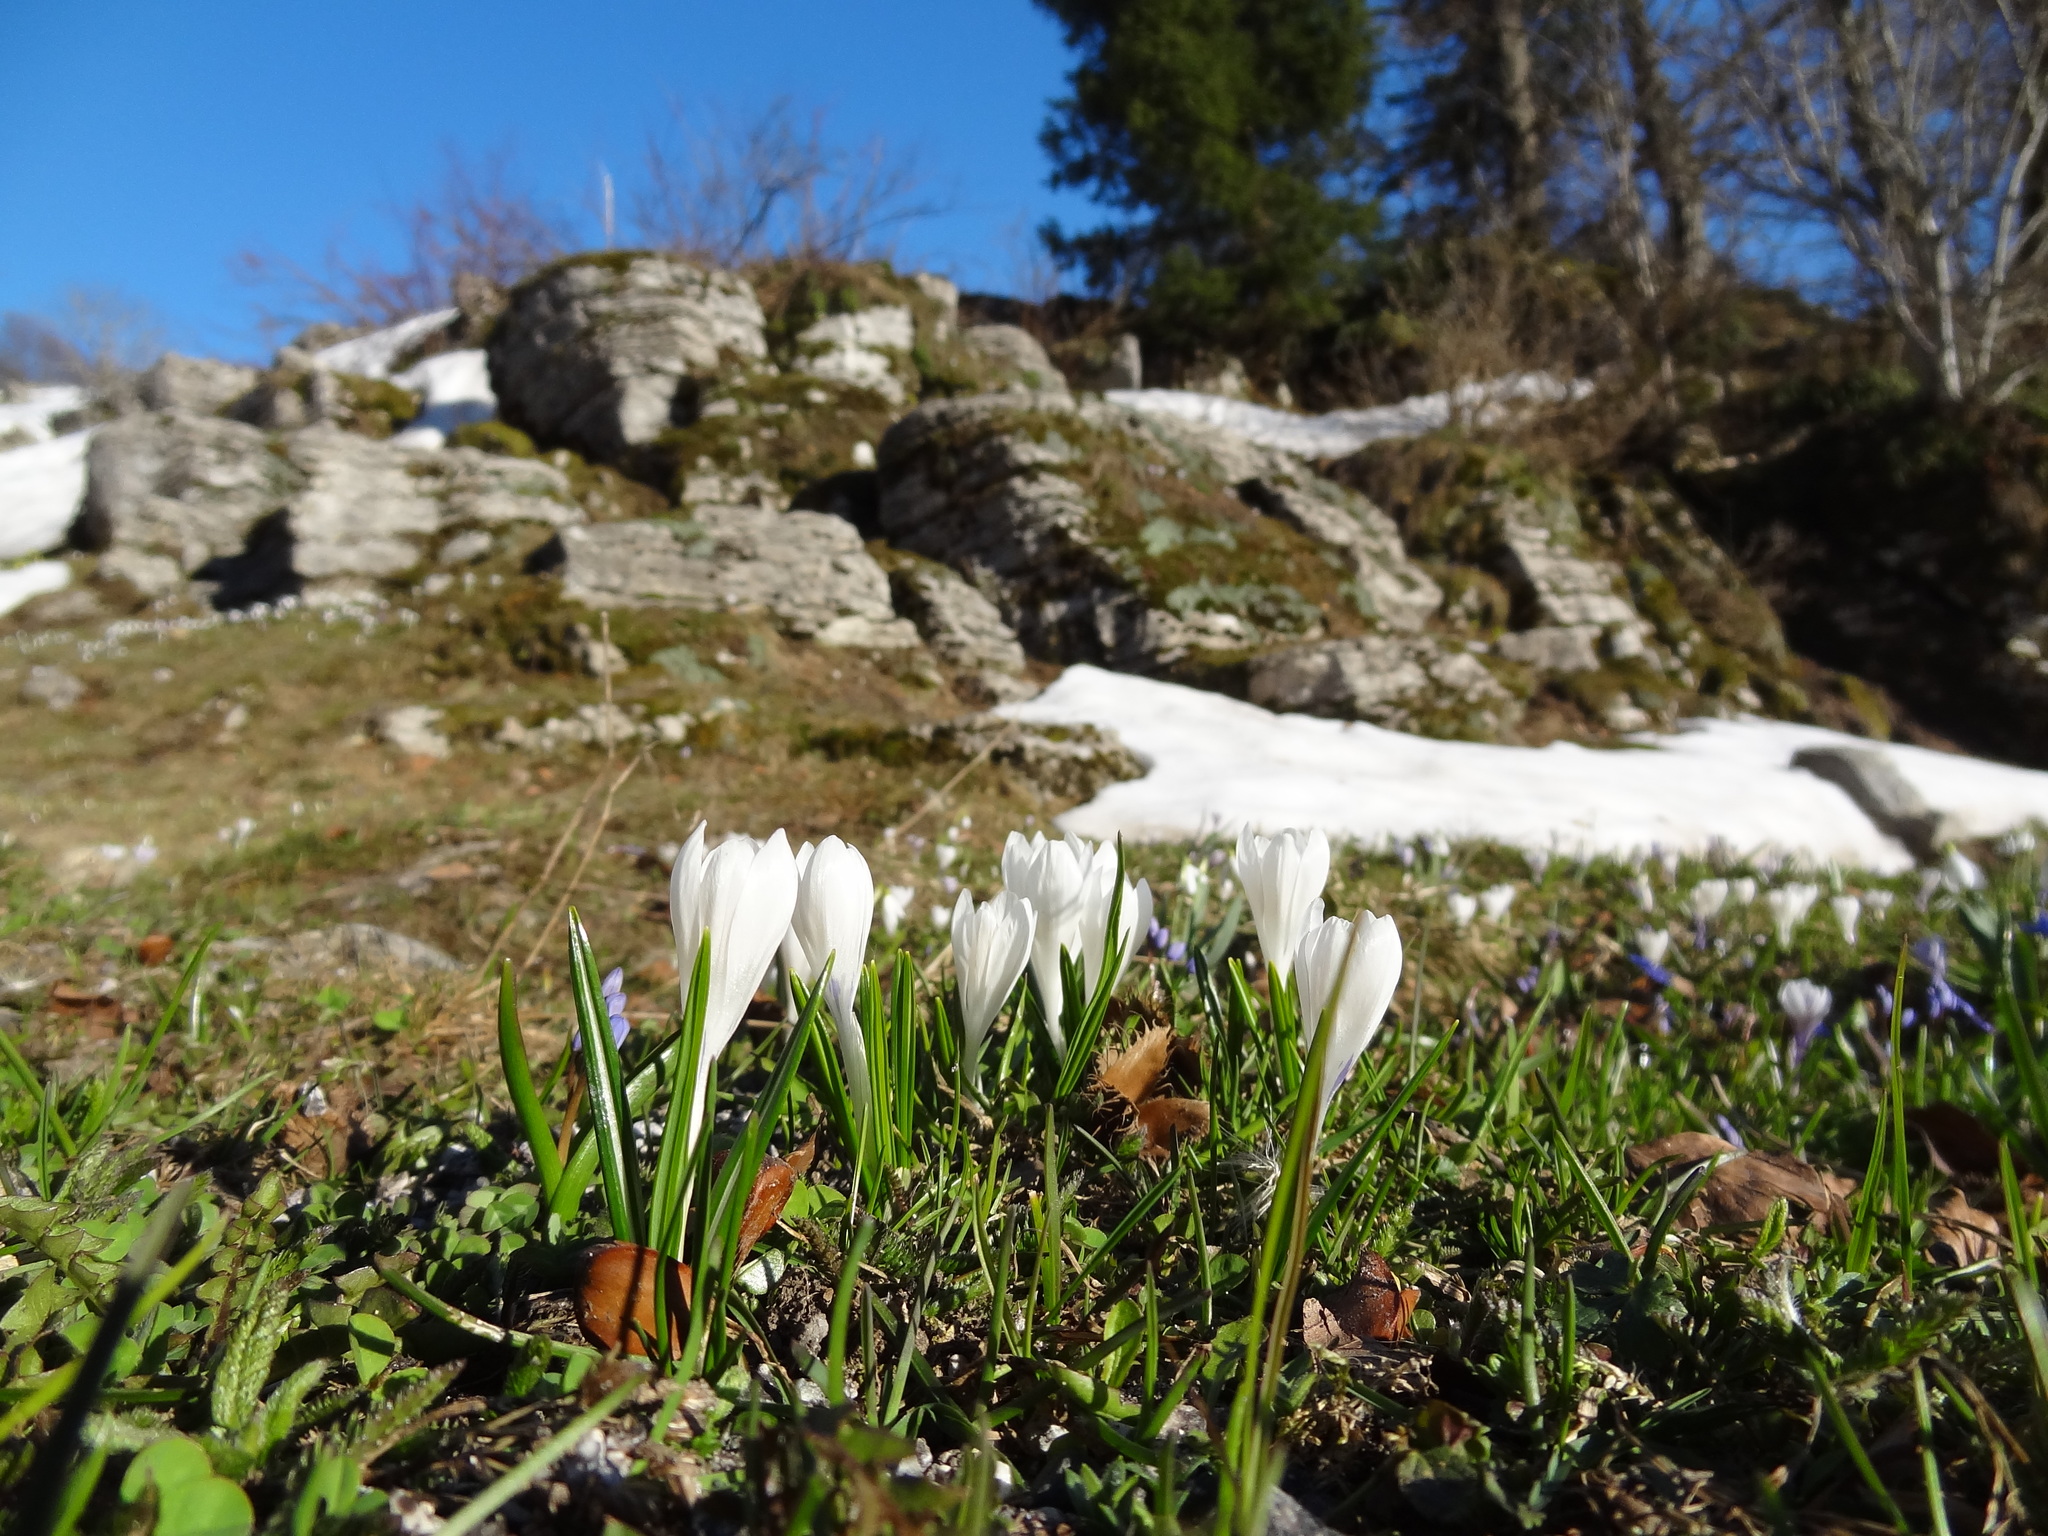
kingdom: Plantae
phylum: Tracheophyta
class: Liliopsida
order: Asparagales
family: Iridaceae
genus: Crocus
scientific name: Crocus vernus
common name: Spring crocus
